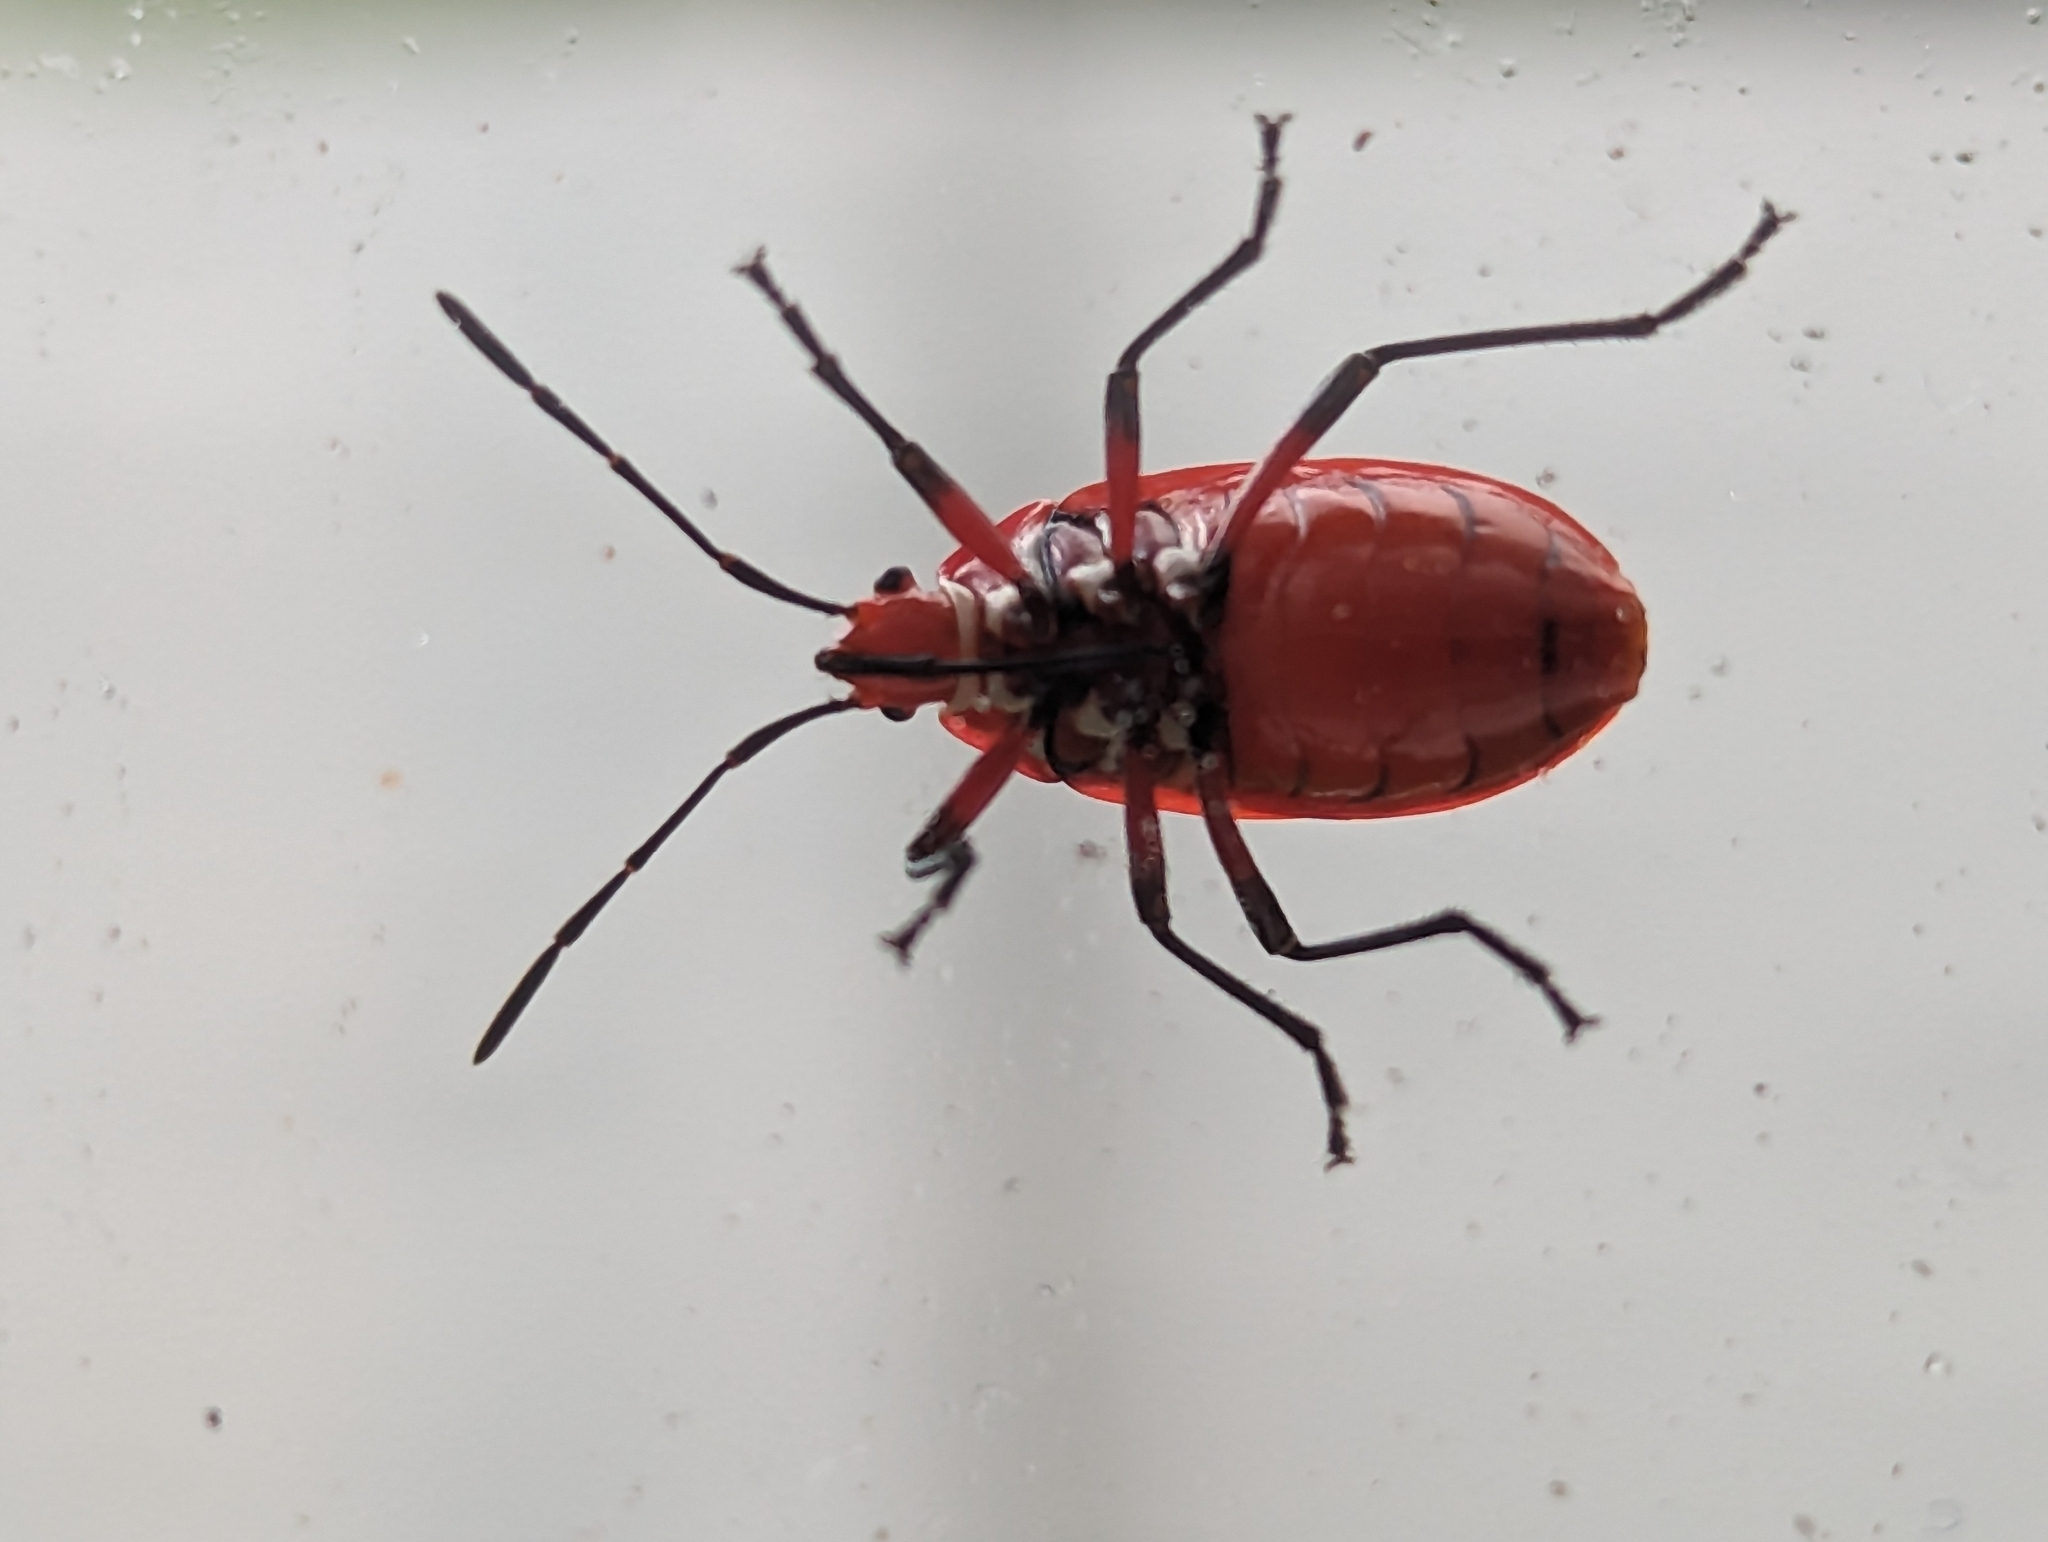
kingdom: Animalia
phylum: Arthropoda
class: Insecta
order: Hemiptera
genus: Cenaeus
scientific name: Cenaeus
